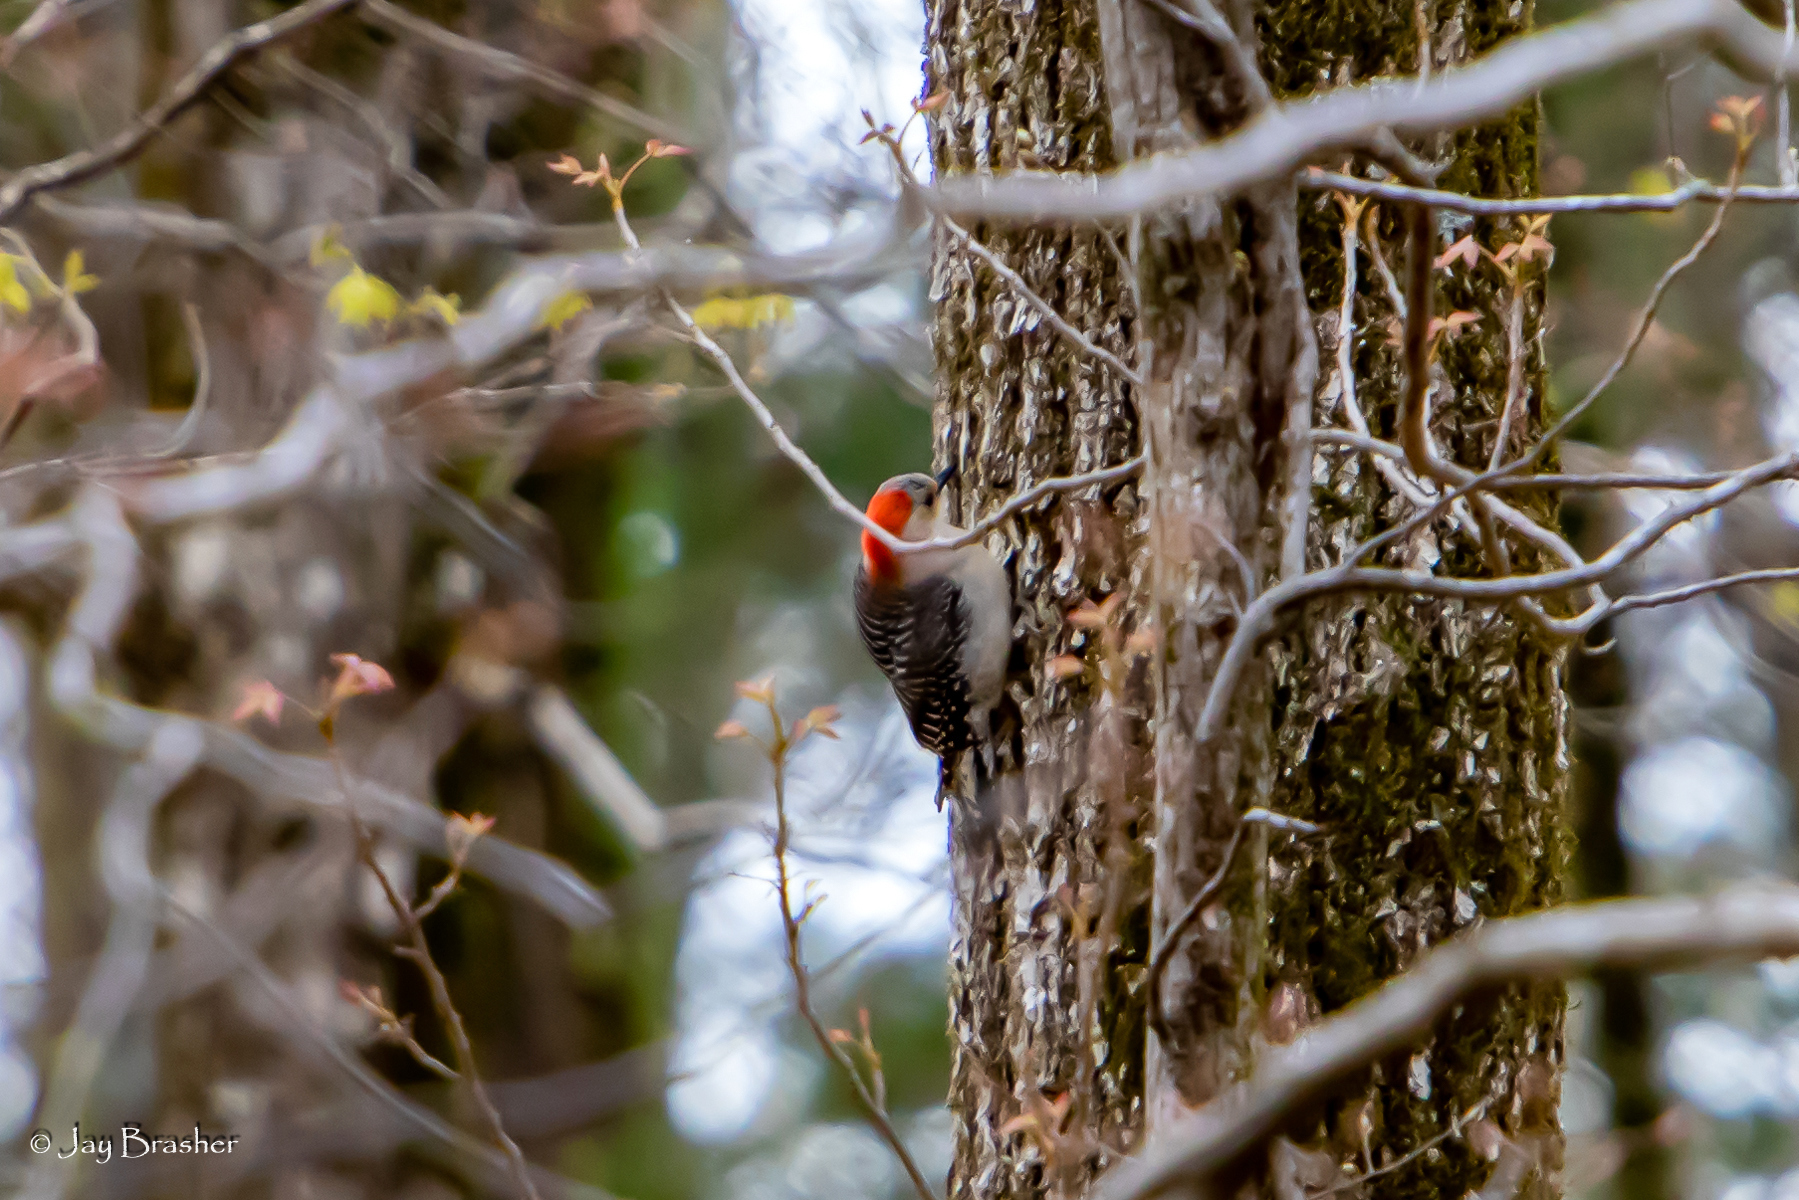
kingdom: Animalia
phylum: Chordata
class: Aves
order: Piciformes
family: Picidae
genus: Melanerpes
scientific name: Melanerpes carolinus
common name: Red-bellied woodpecker
